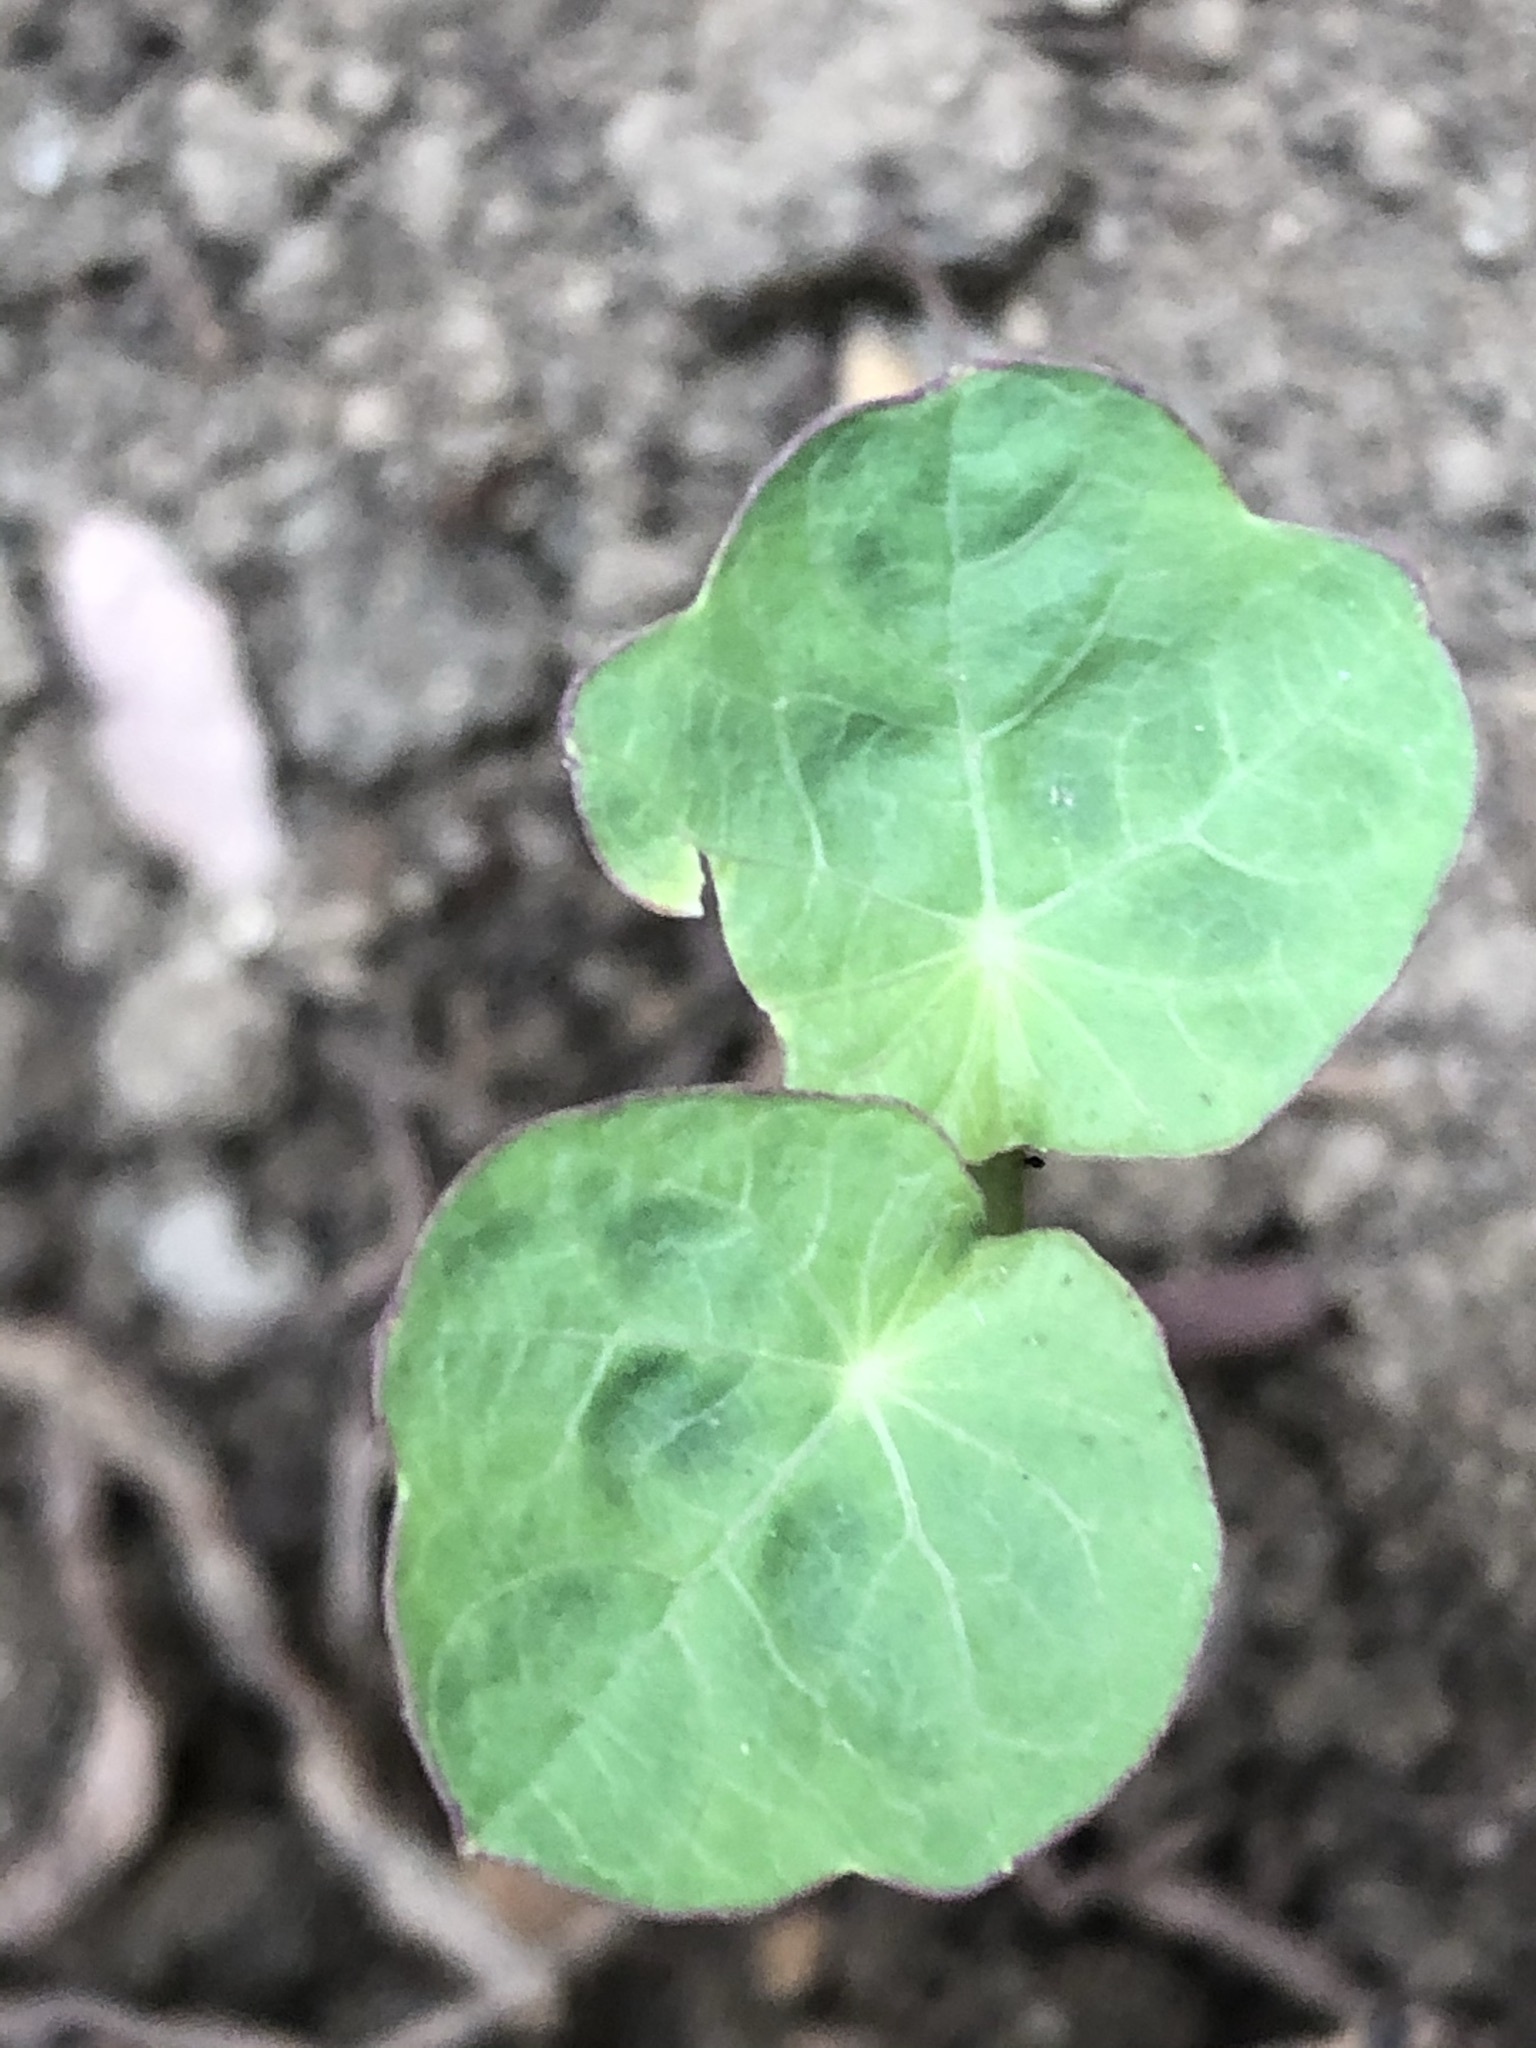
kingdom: Plantae
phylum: Tracheophyta
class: Magnoliopsida
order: Brassicales
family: Tropaeolaceae
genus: Tropaeolum
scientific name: Tropaeolum majus
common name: Nasturtium
